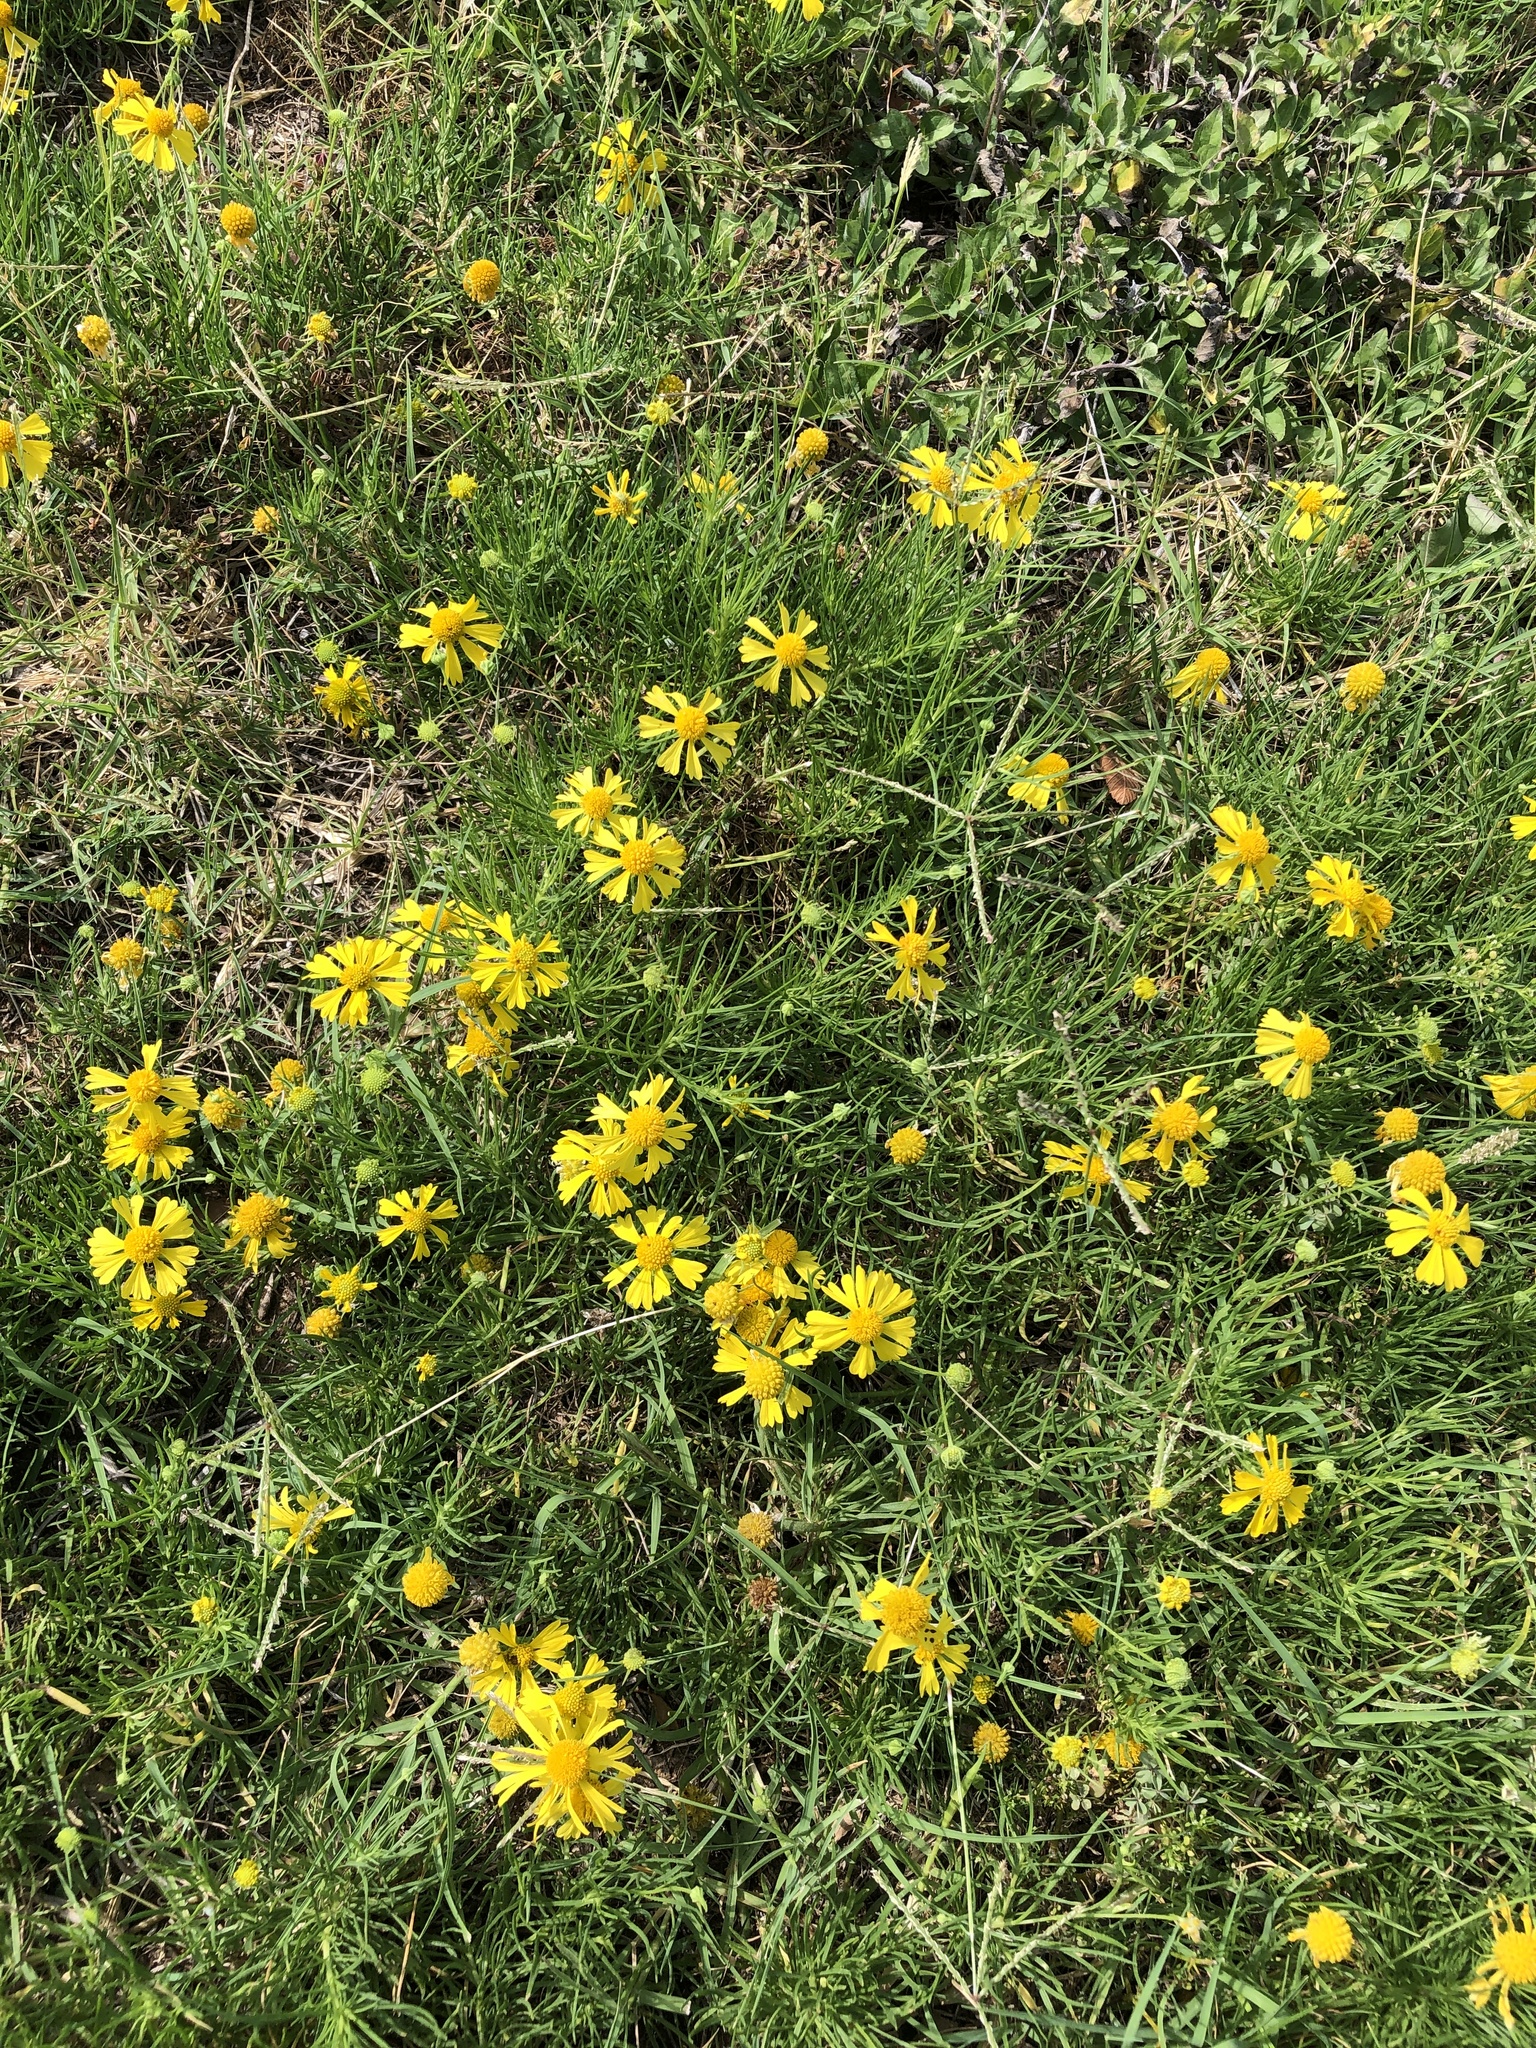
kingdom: Plantae
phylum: Tracheophyta
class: Magnoliopsida
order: Asterales
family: Asteraceae
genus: Helenium
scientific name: Helenium amarum
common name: Bitter sneezeweed
